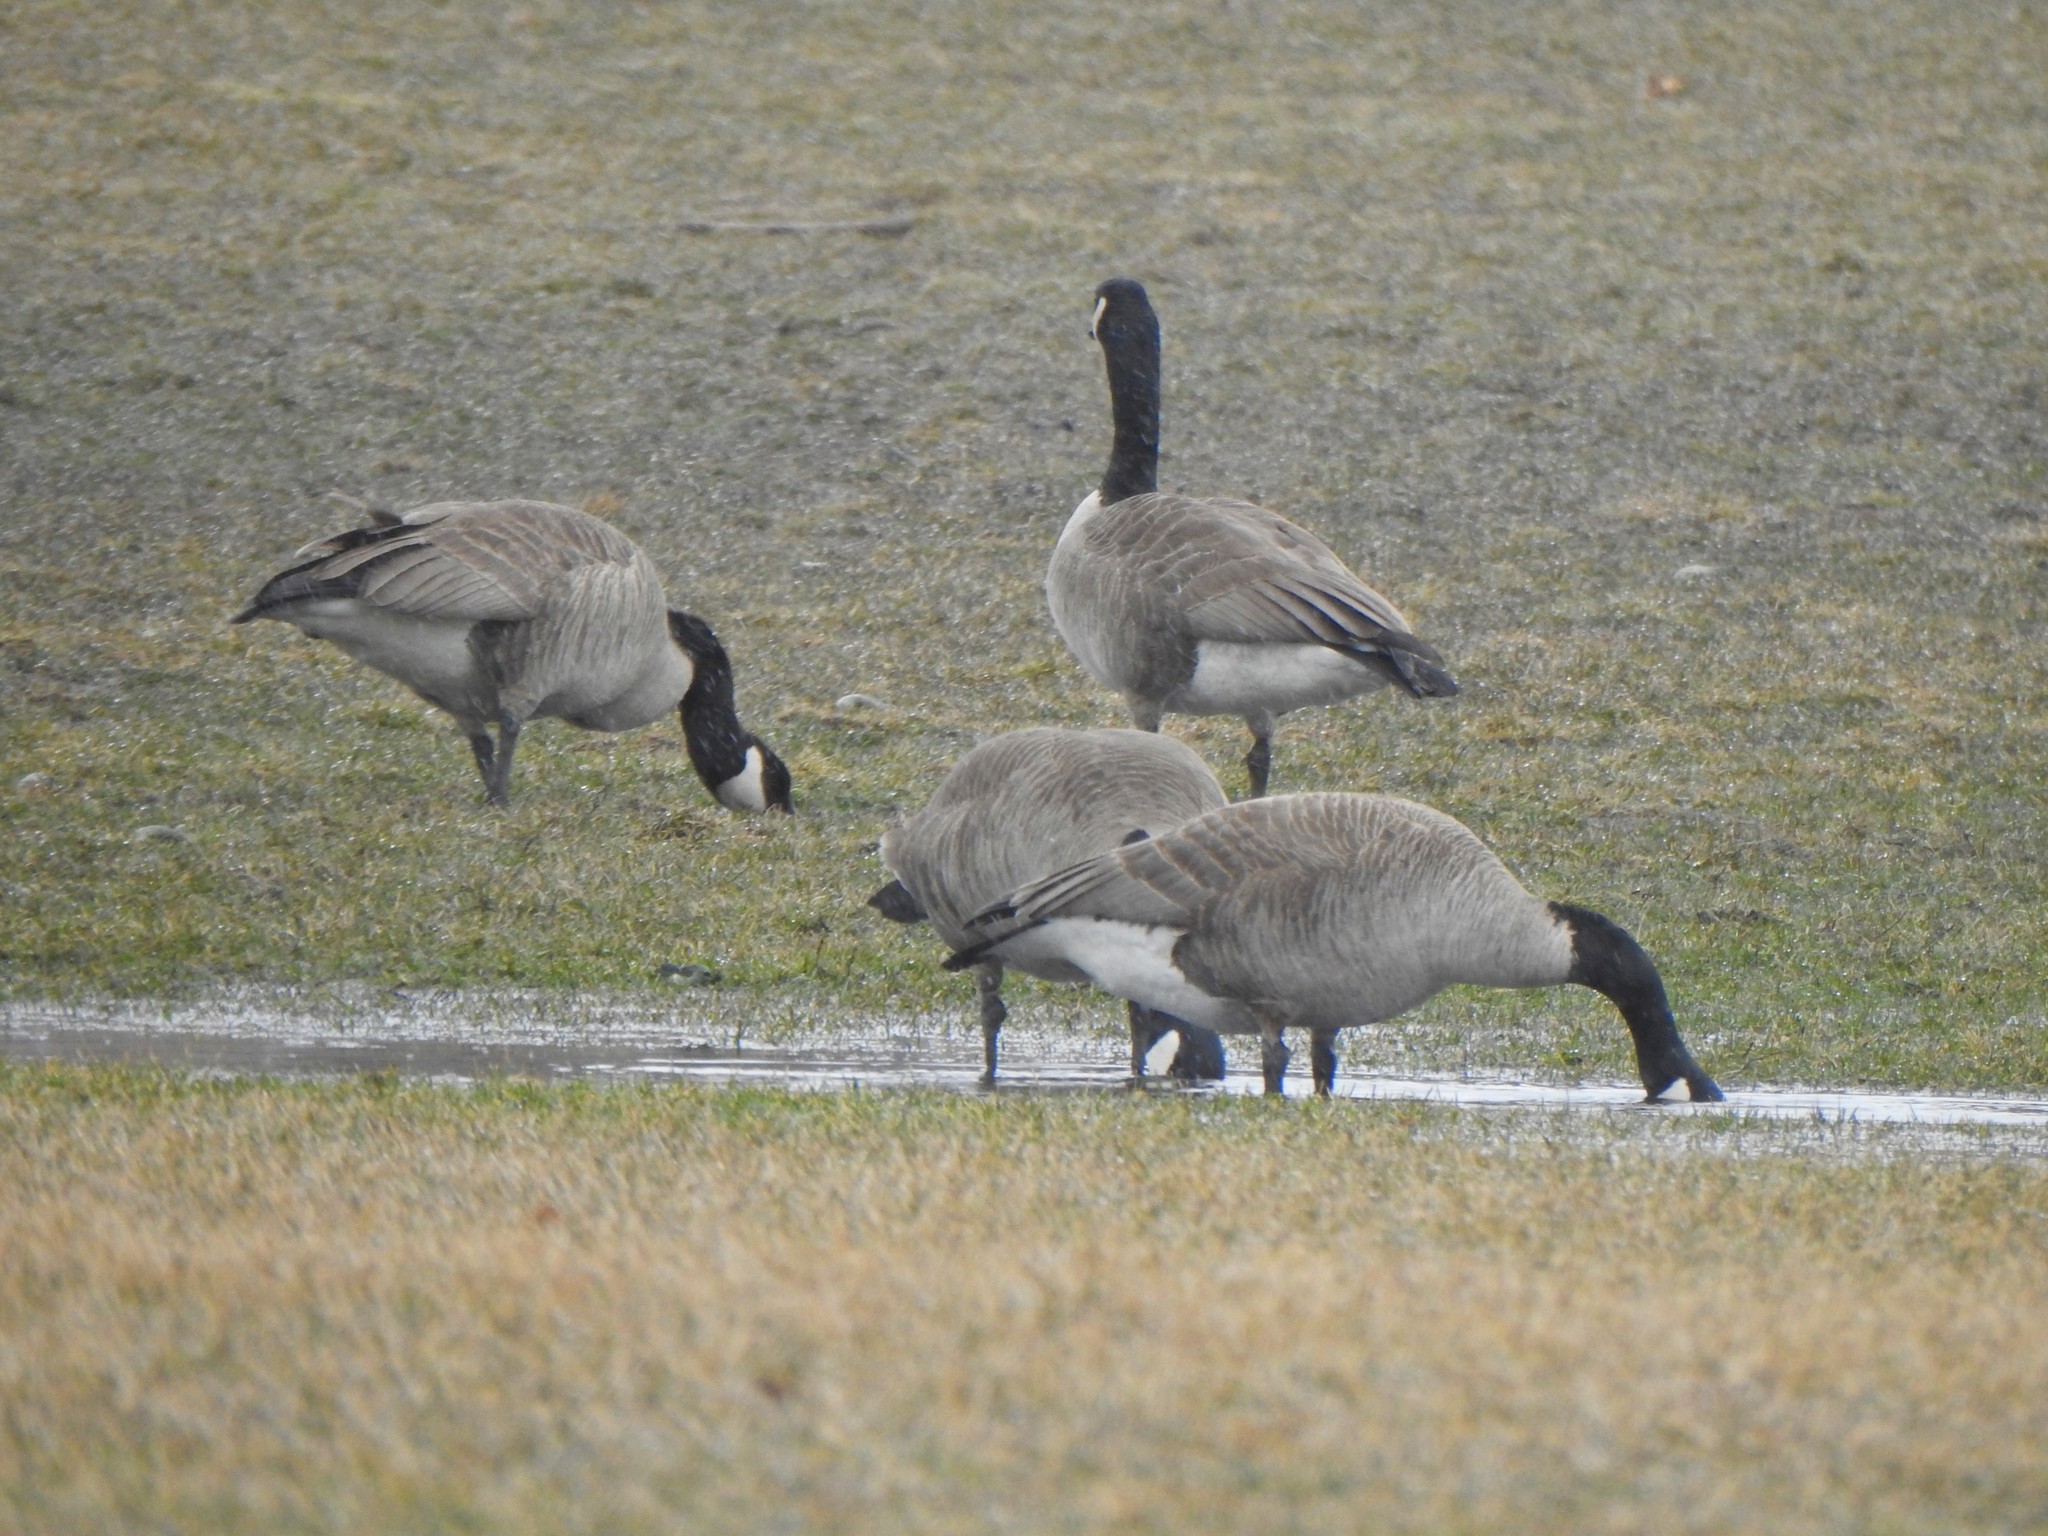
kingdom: Animalia
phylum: Chordata
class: Aves
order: Anseriformes
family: Anatidae
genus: Branta
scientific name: Branta canadensis
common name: Canada goose
